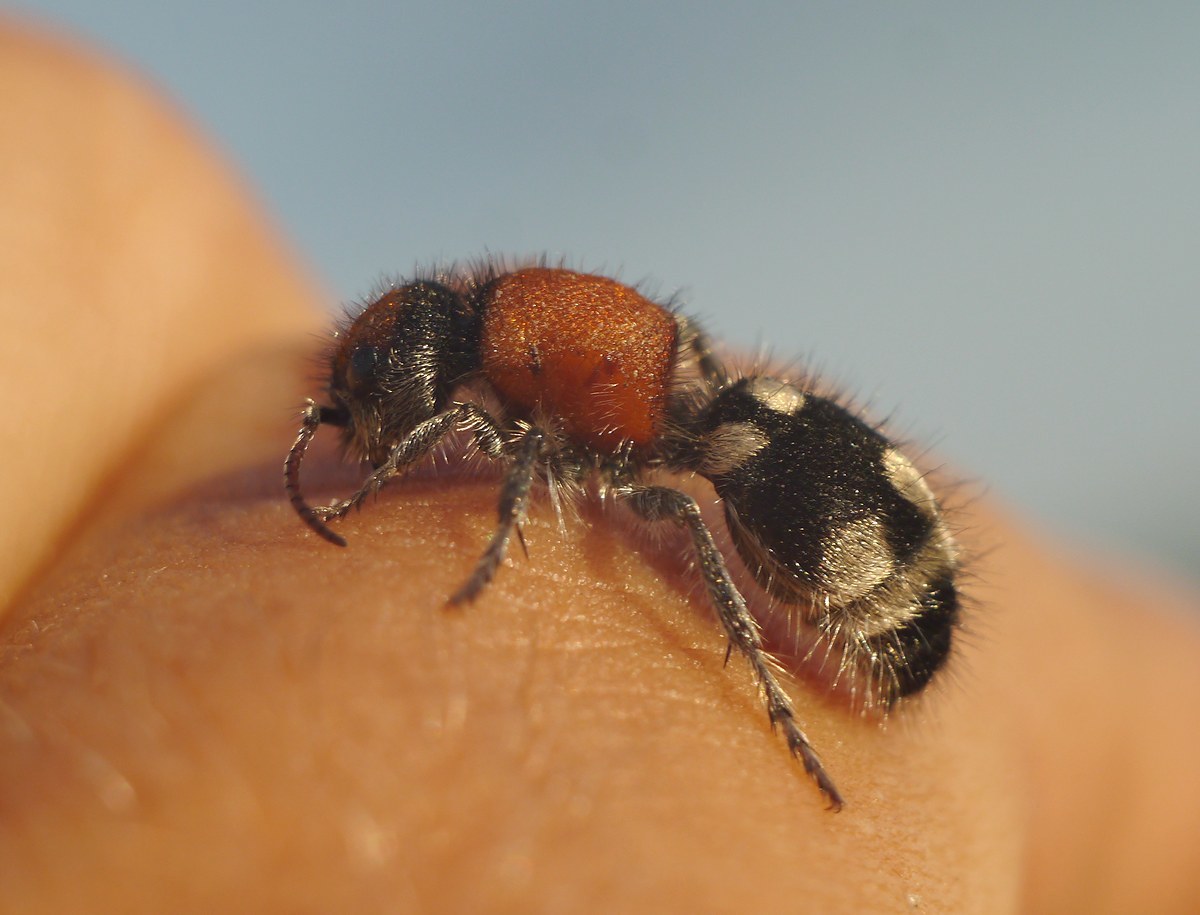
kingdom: Animalia
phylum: Arthropoda
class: Insecta
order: Hymenoptera
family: Mutillidae
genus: Ronisia
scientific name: Ronisia brutia
